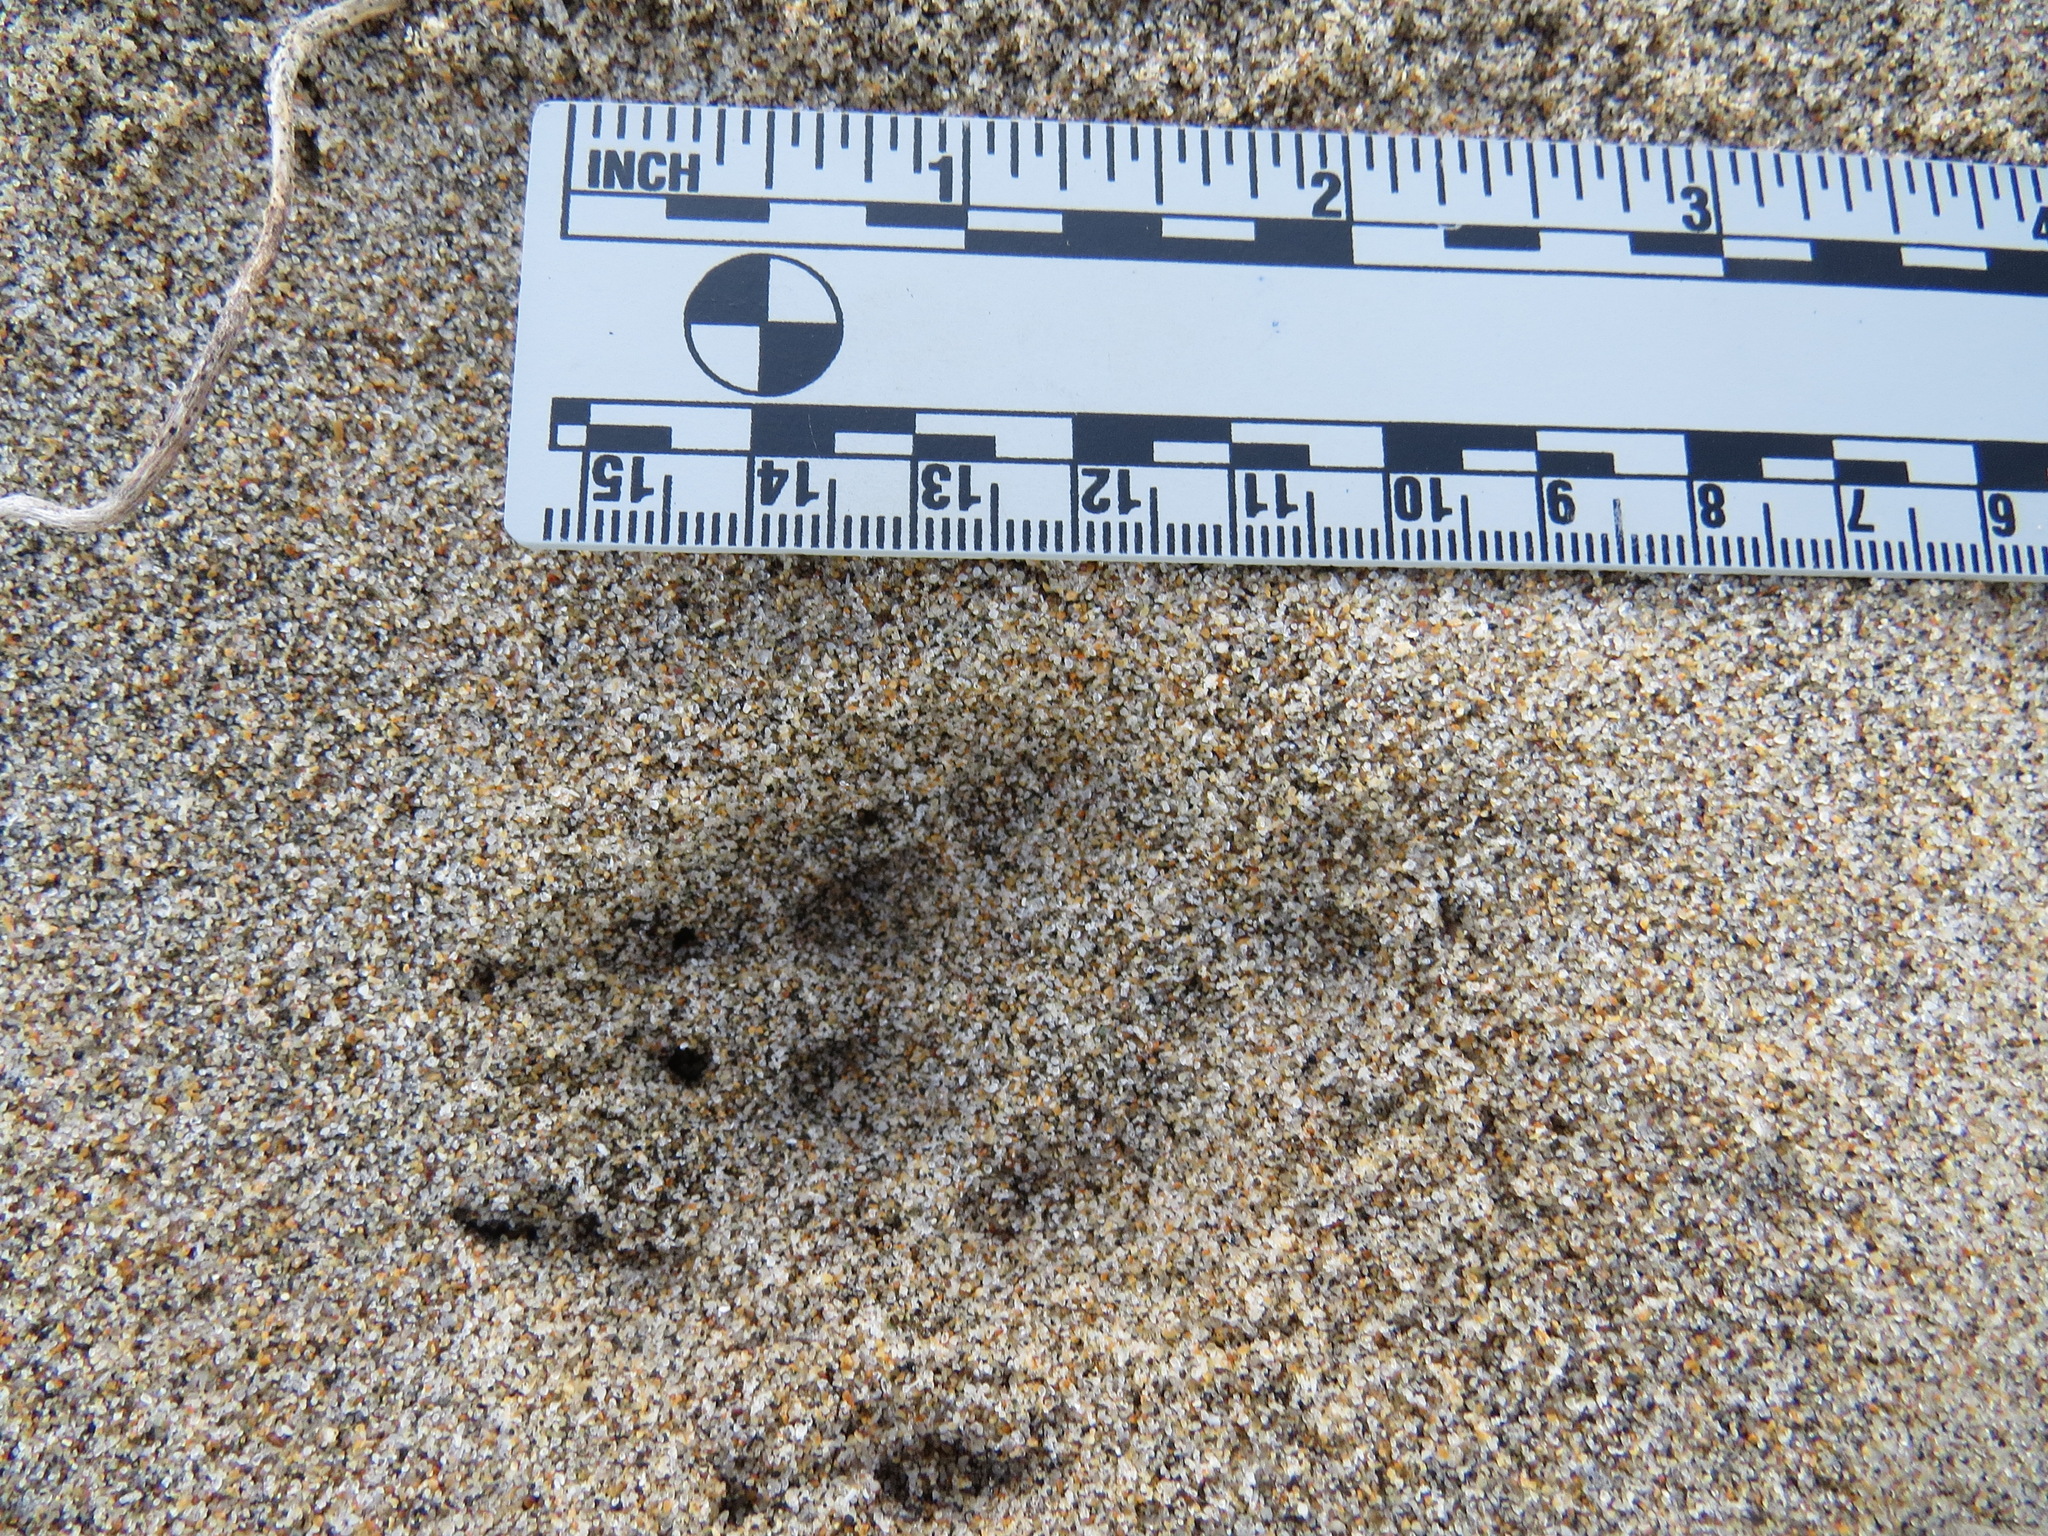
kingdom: Animalia
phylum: Chordata
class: Mammalia
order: Carnivora
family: Canidae
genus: Urocyon
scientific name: Urocyon cinereoargenteus
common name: Gray fox
